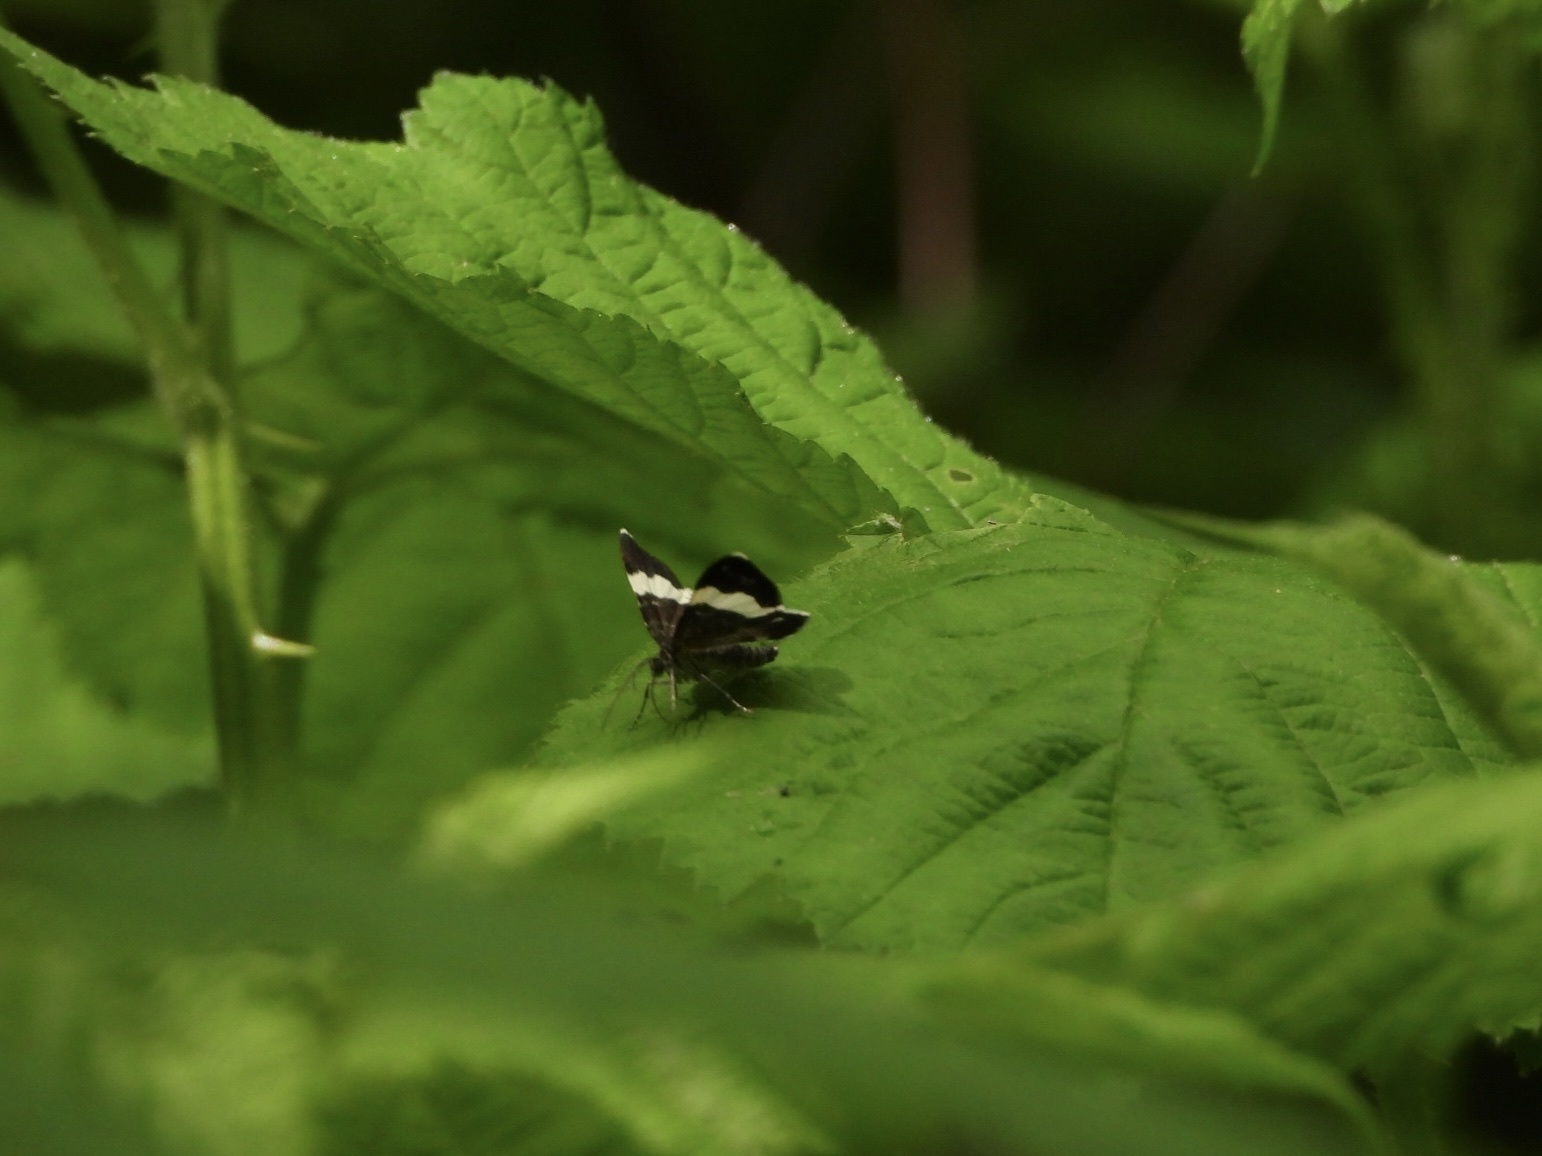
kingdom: Animalia
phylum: Arthropoda
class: Insecta
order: Lepidoptera
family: Geometridae
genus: Trichodezia
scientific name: Trichodezia albovittata
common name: White striped black
